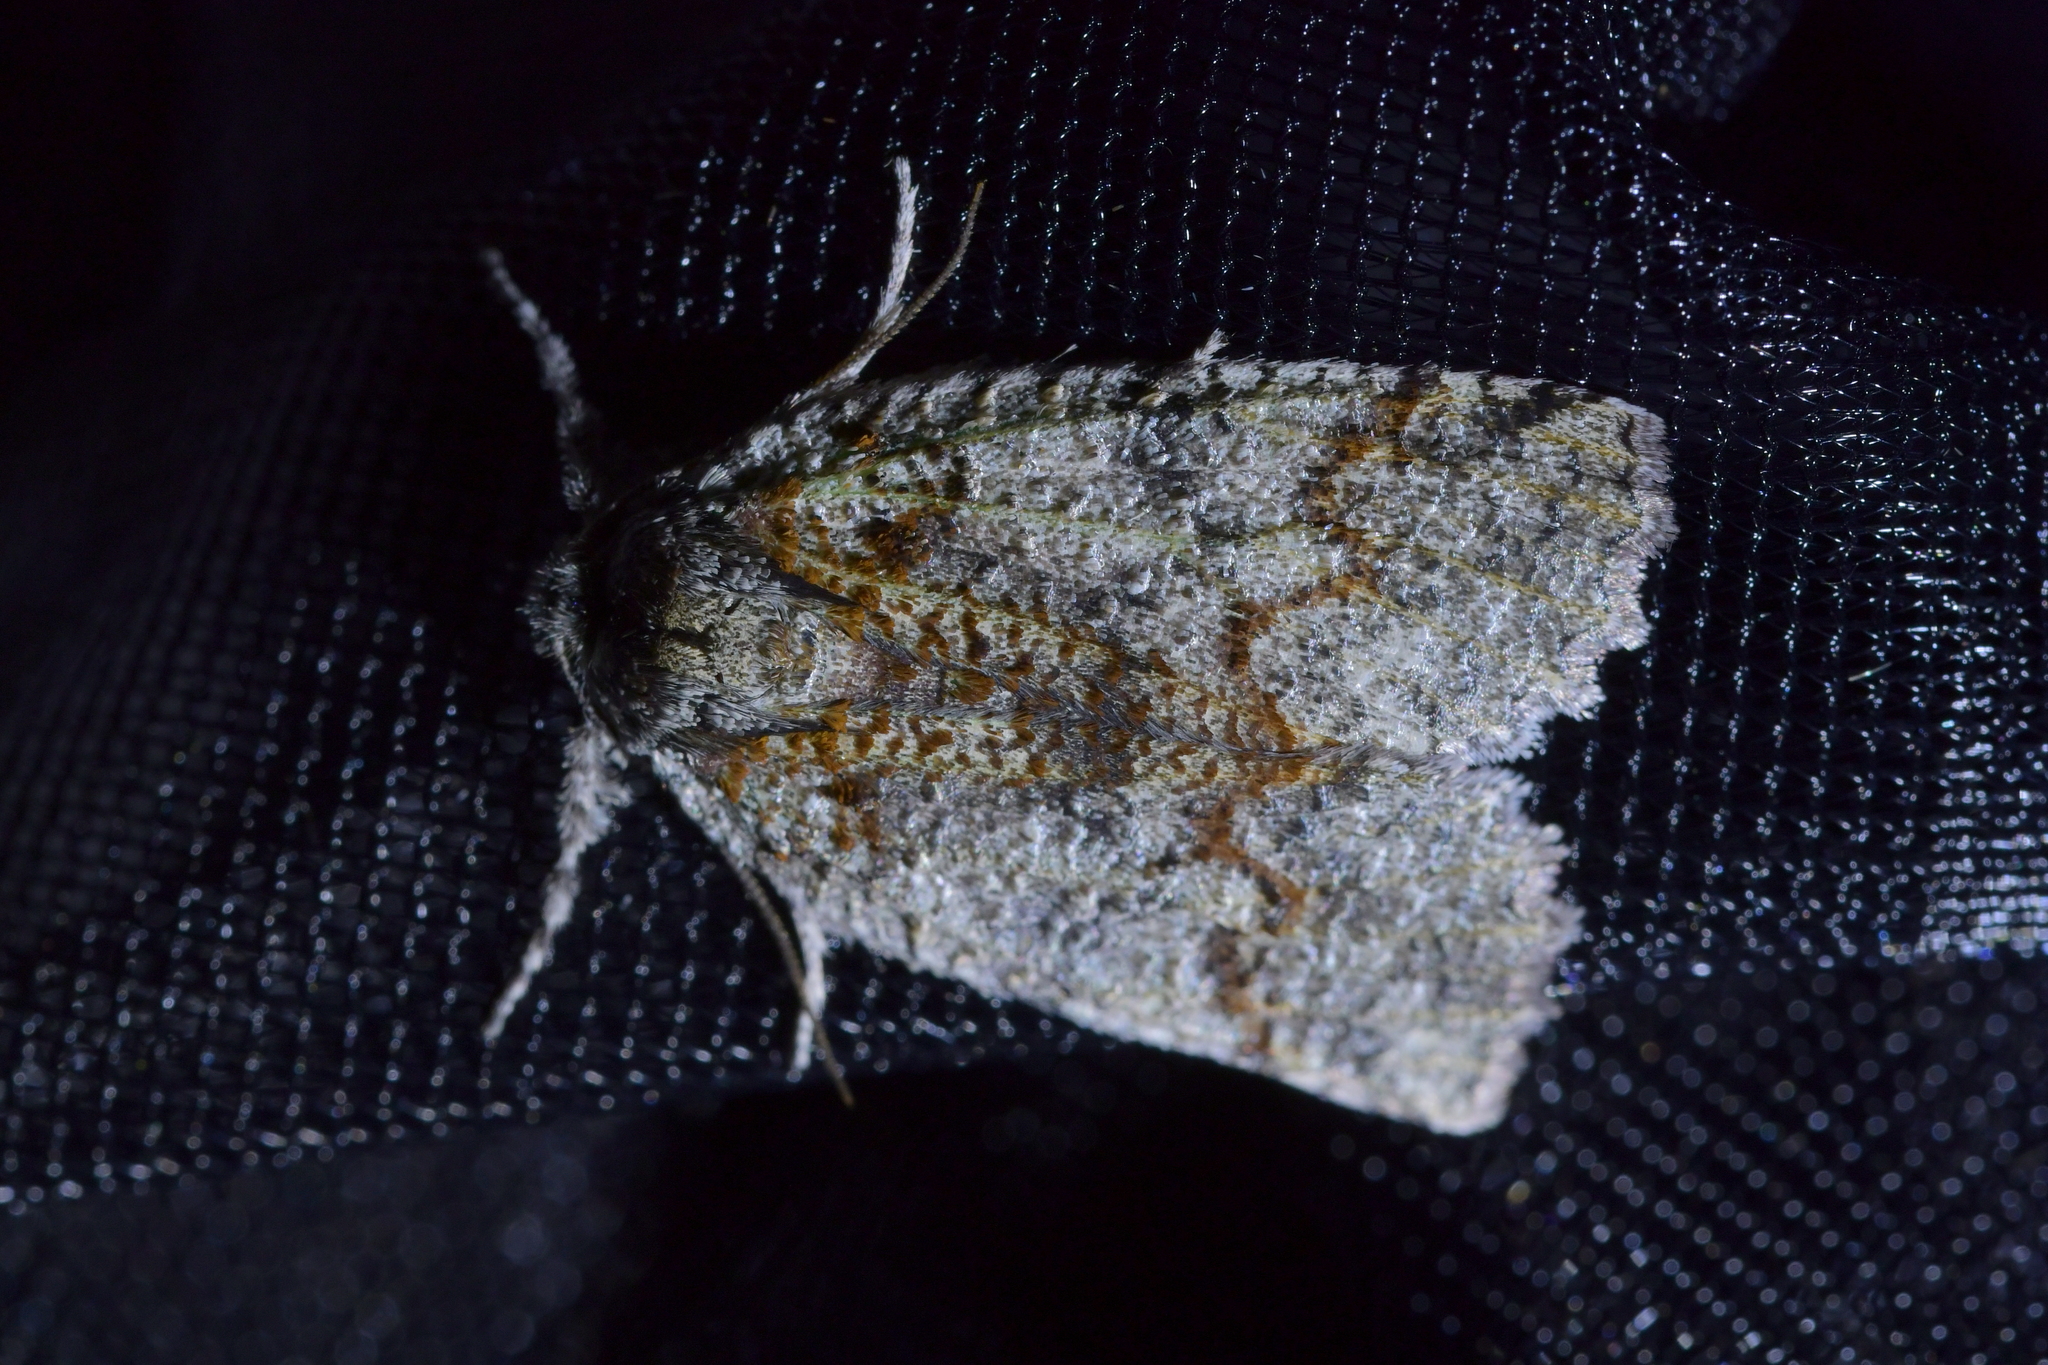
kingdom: Animalia
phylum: Arthropoda
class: Insecta
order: Lepidoptera
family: Geometridae
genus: Declana
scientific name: Declana floccosa
